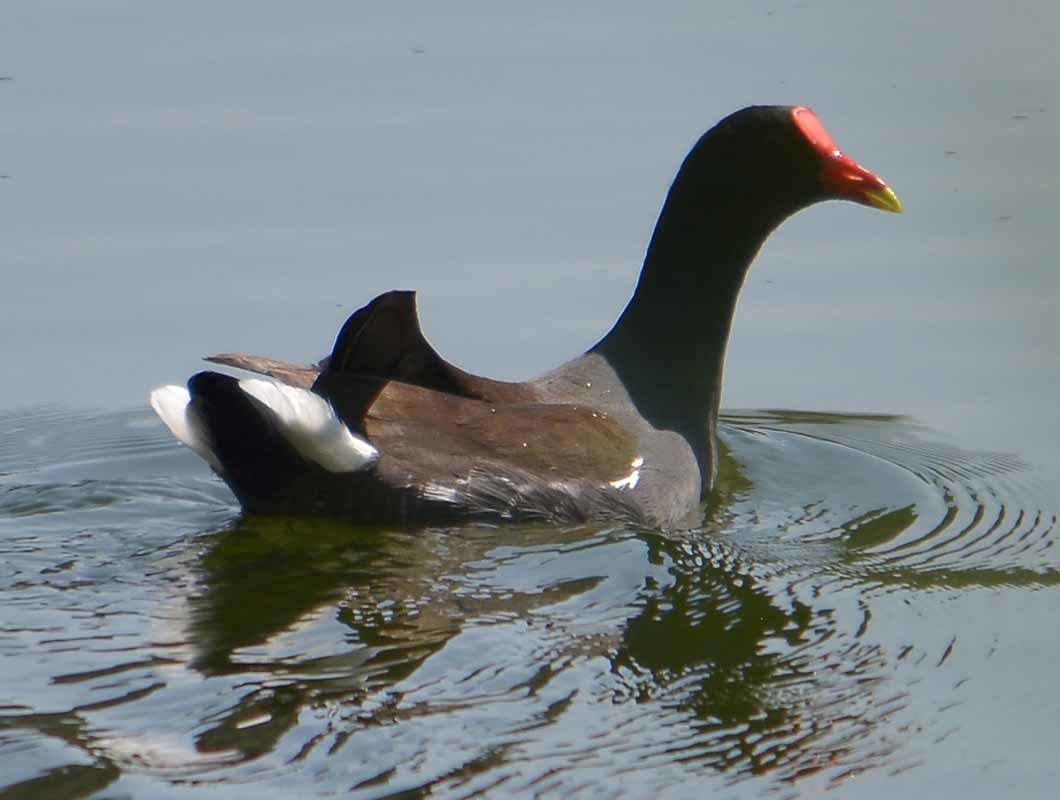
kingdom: Animalia
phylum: Chordata
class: Aves
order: Gruiformes
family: Rallidae
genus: Gallinula
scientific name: Gallinula chloropus
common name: Common moorhen
